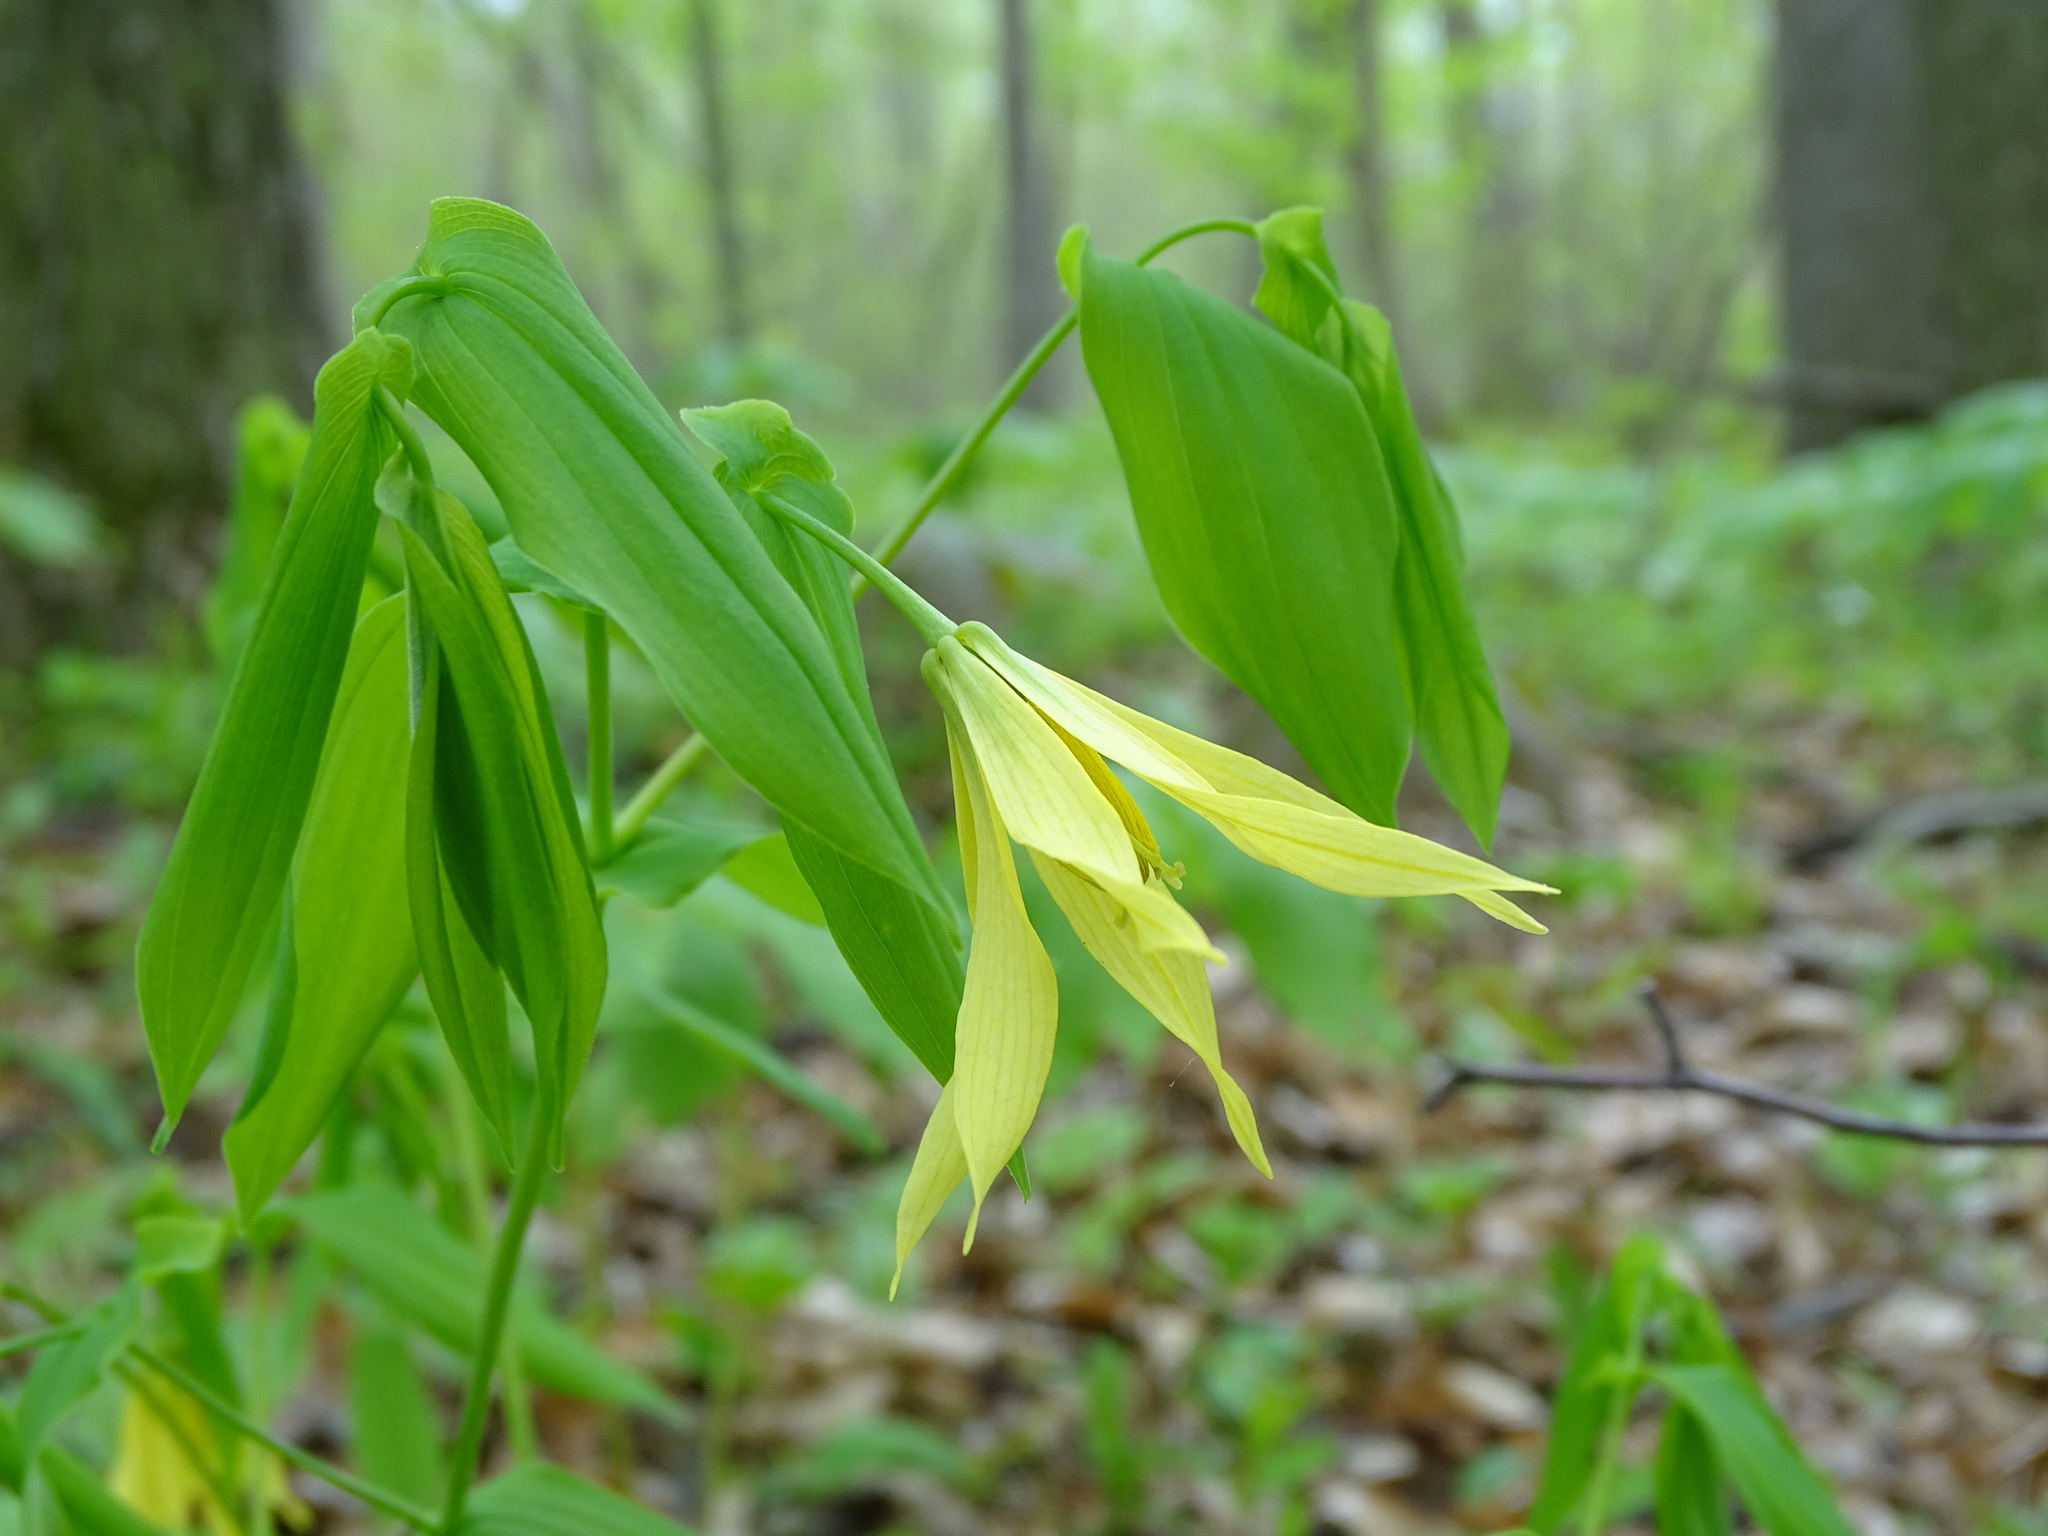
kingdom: Plantae
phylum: Tracheophyta
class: Liliopsida
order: Liliales
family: Colchicaceae
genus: Uvularia
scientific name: Uvularia grandiflora
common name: Bellwort
